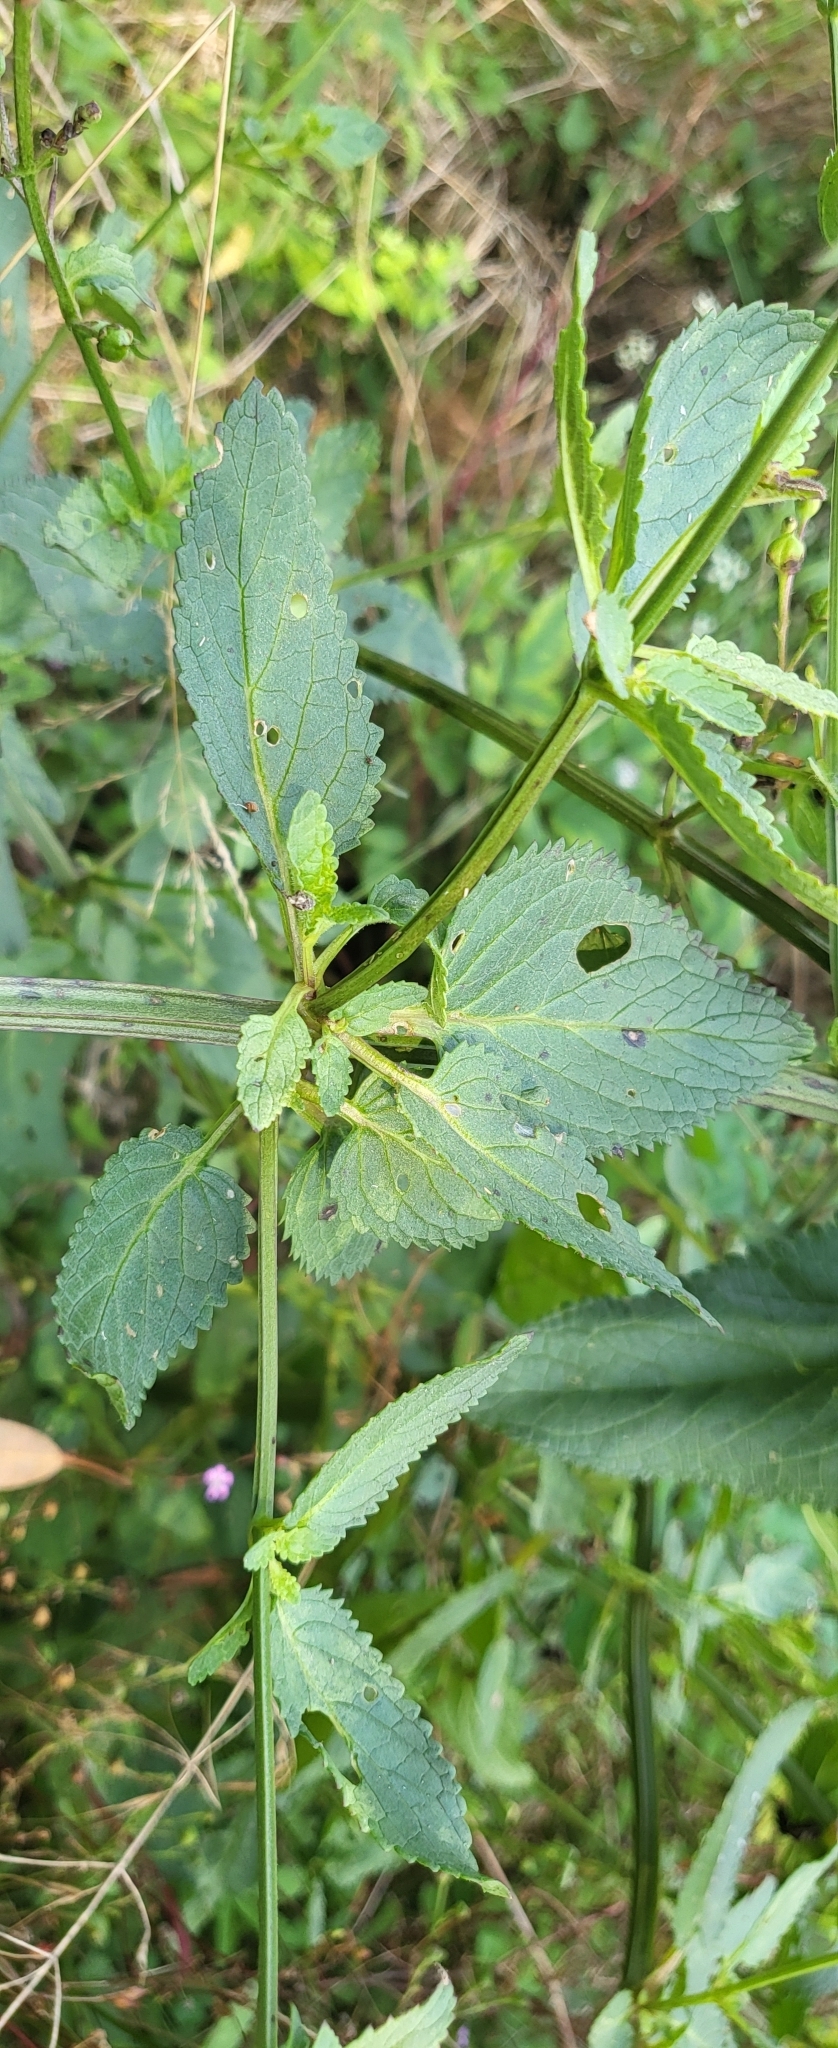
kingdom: Plantae
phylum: Tracheophyta
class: Magnoliopsida
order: Lamiales
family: Scrophulariaceae
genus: Scrophularia
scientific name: Scrophularia auriculata
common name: Water betony
